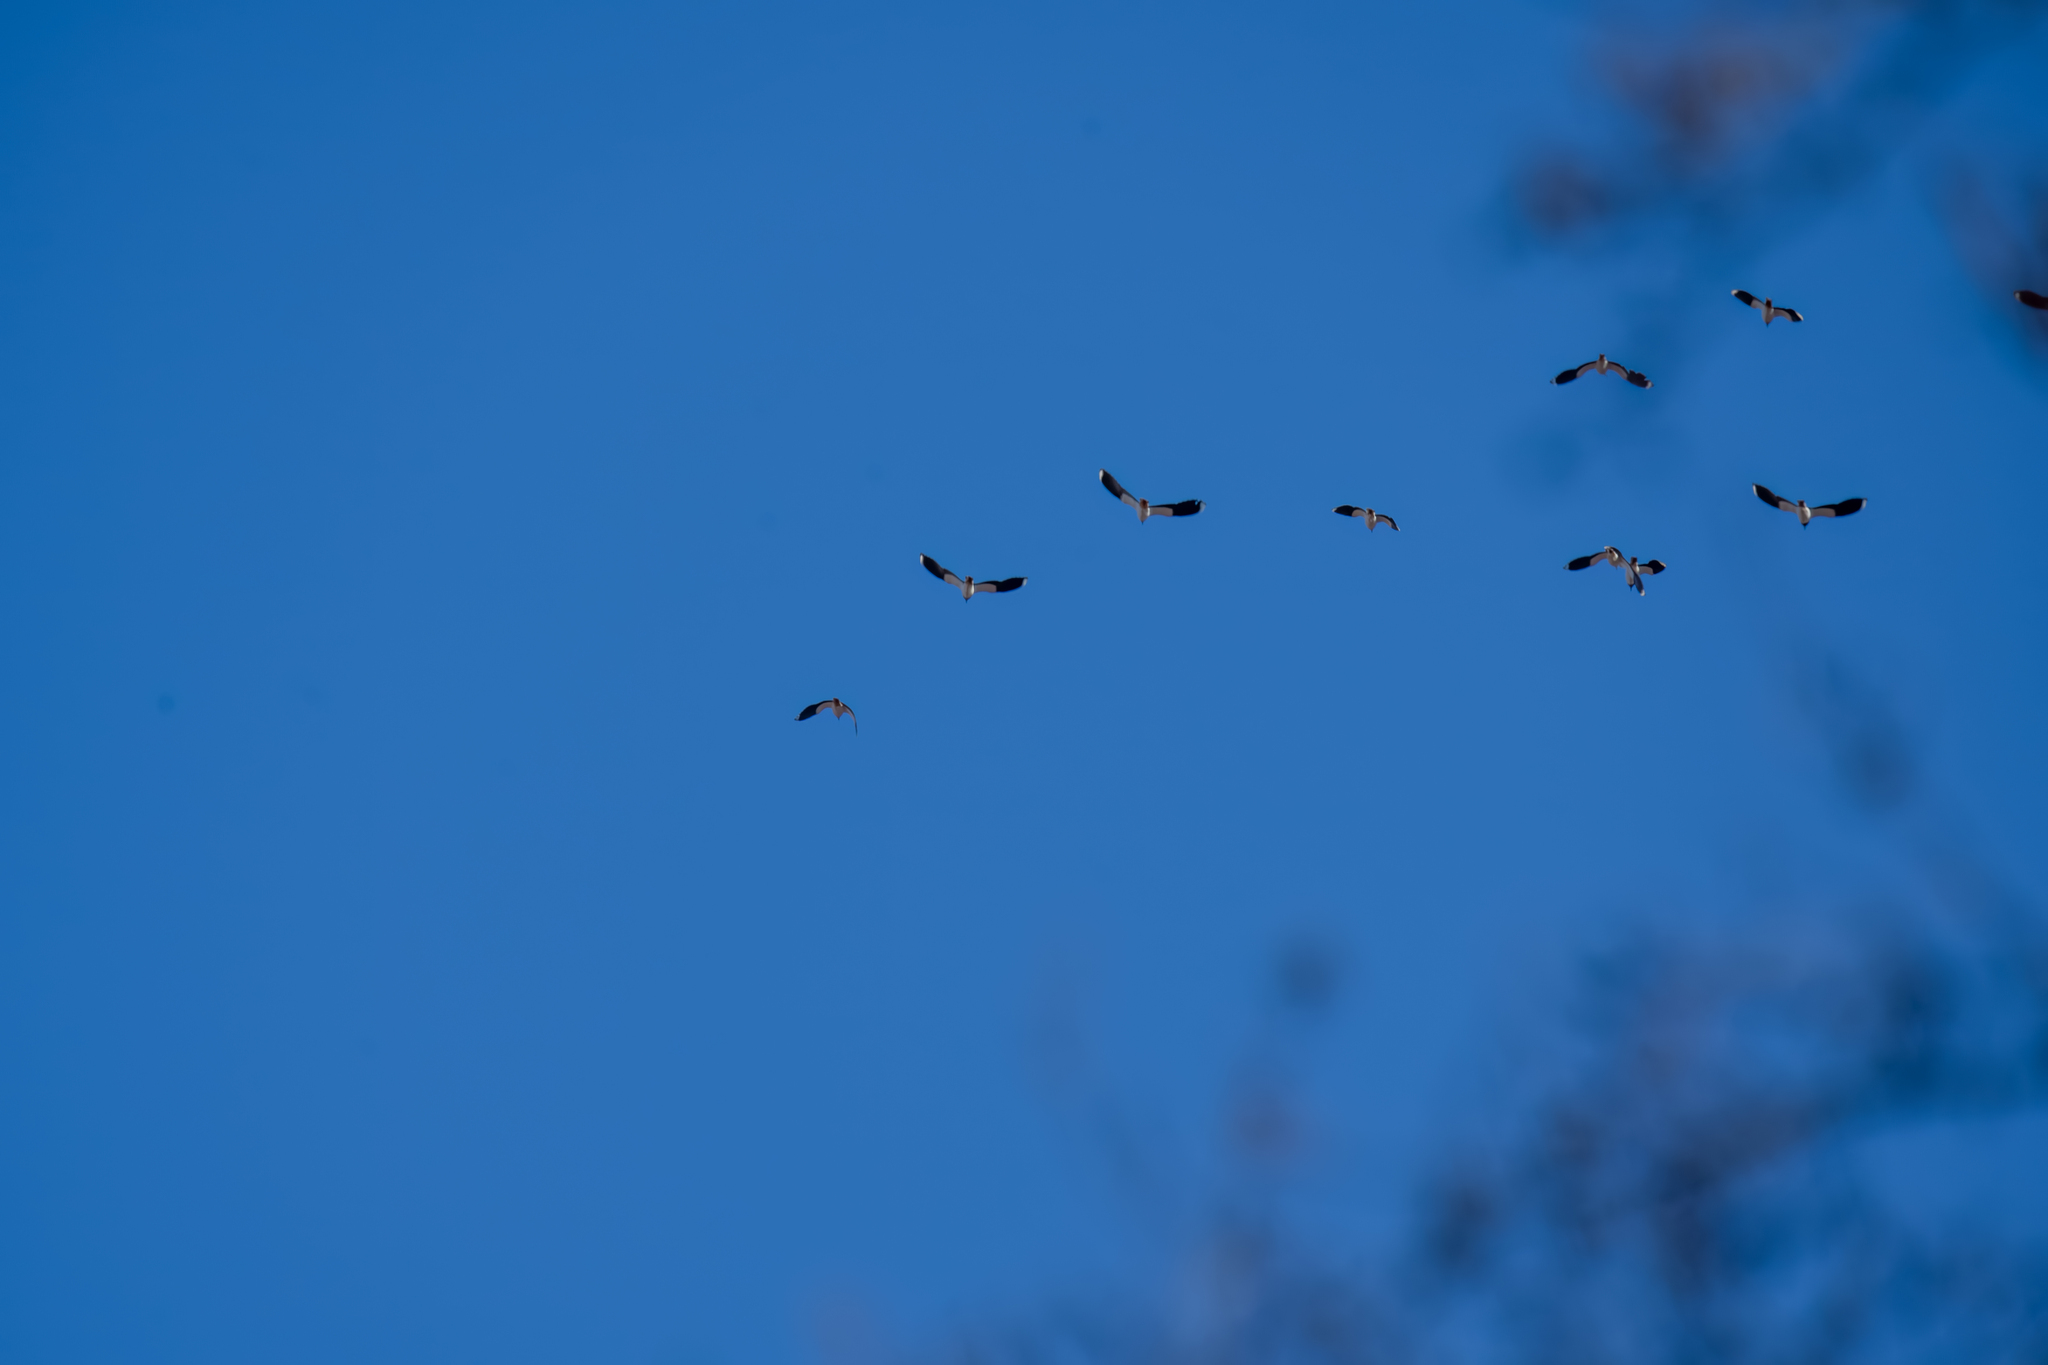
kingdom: Animalia
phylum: Chordata
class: Aves
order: Charadriiformes
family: Charadriidae
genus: Vanellus
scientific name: Vanellus vanellus
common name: Northern lapwing
